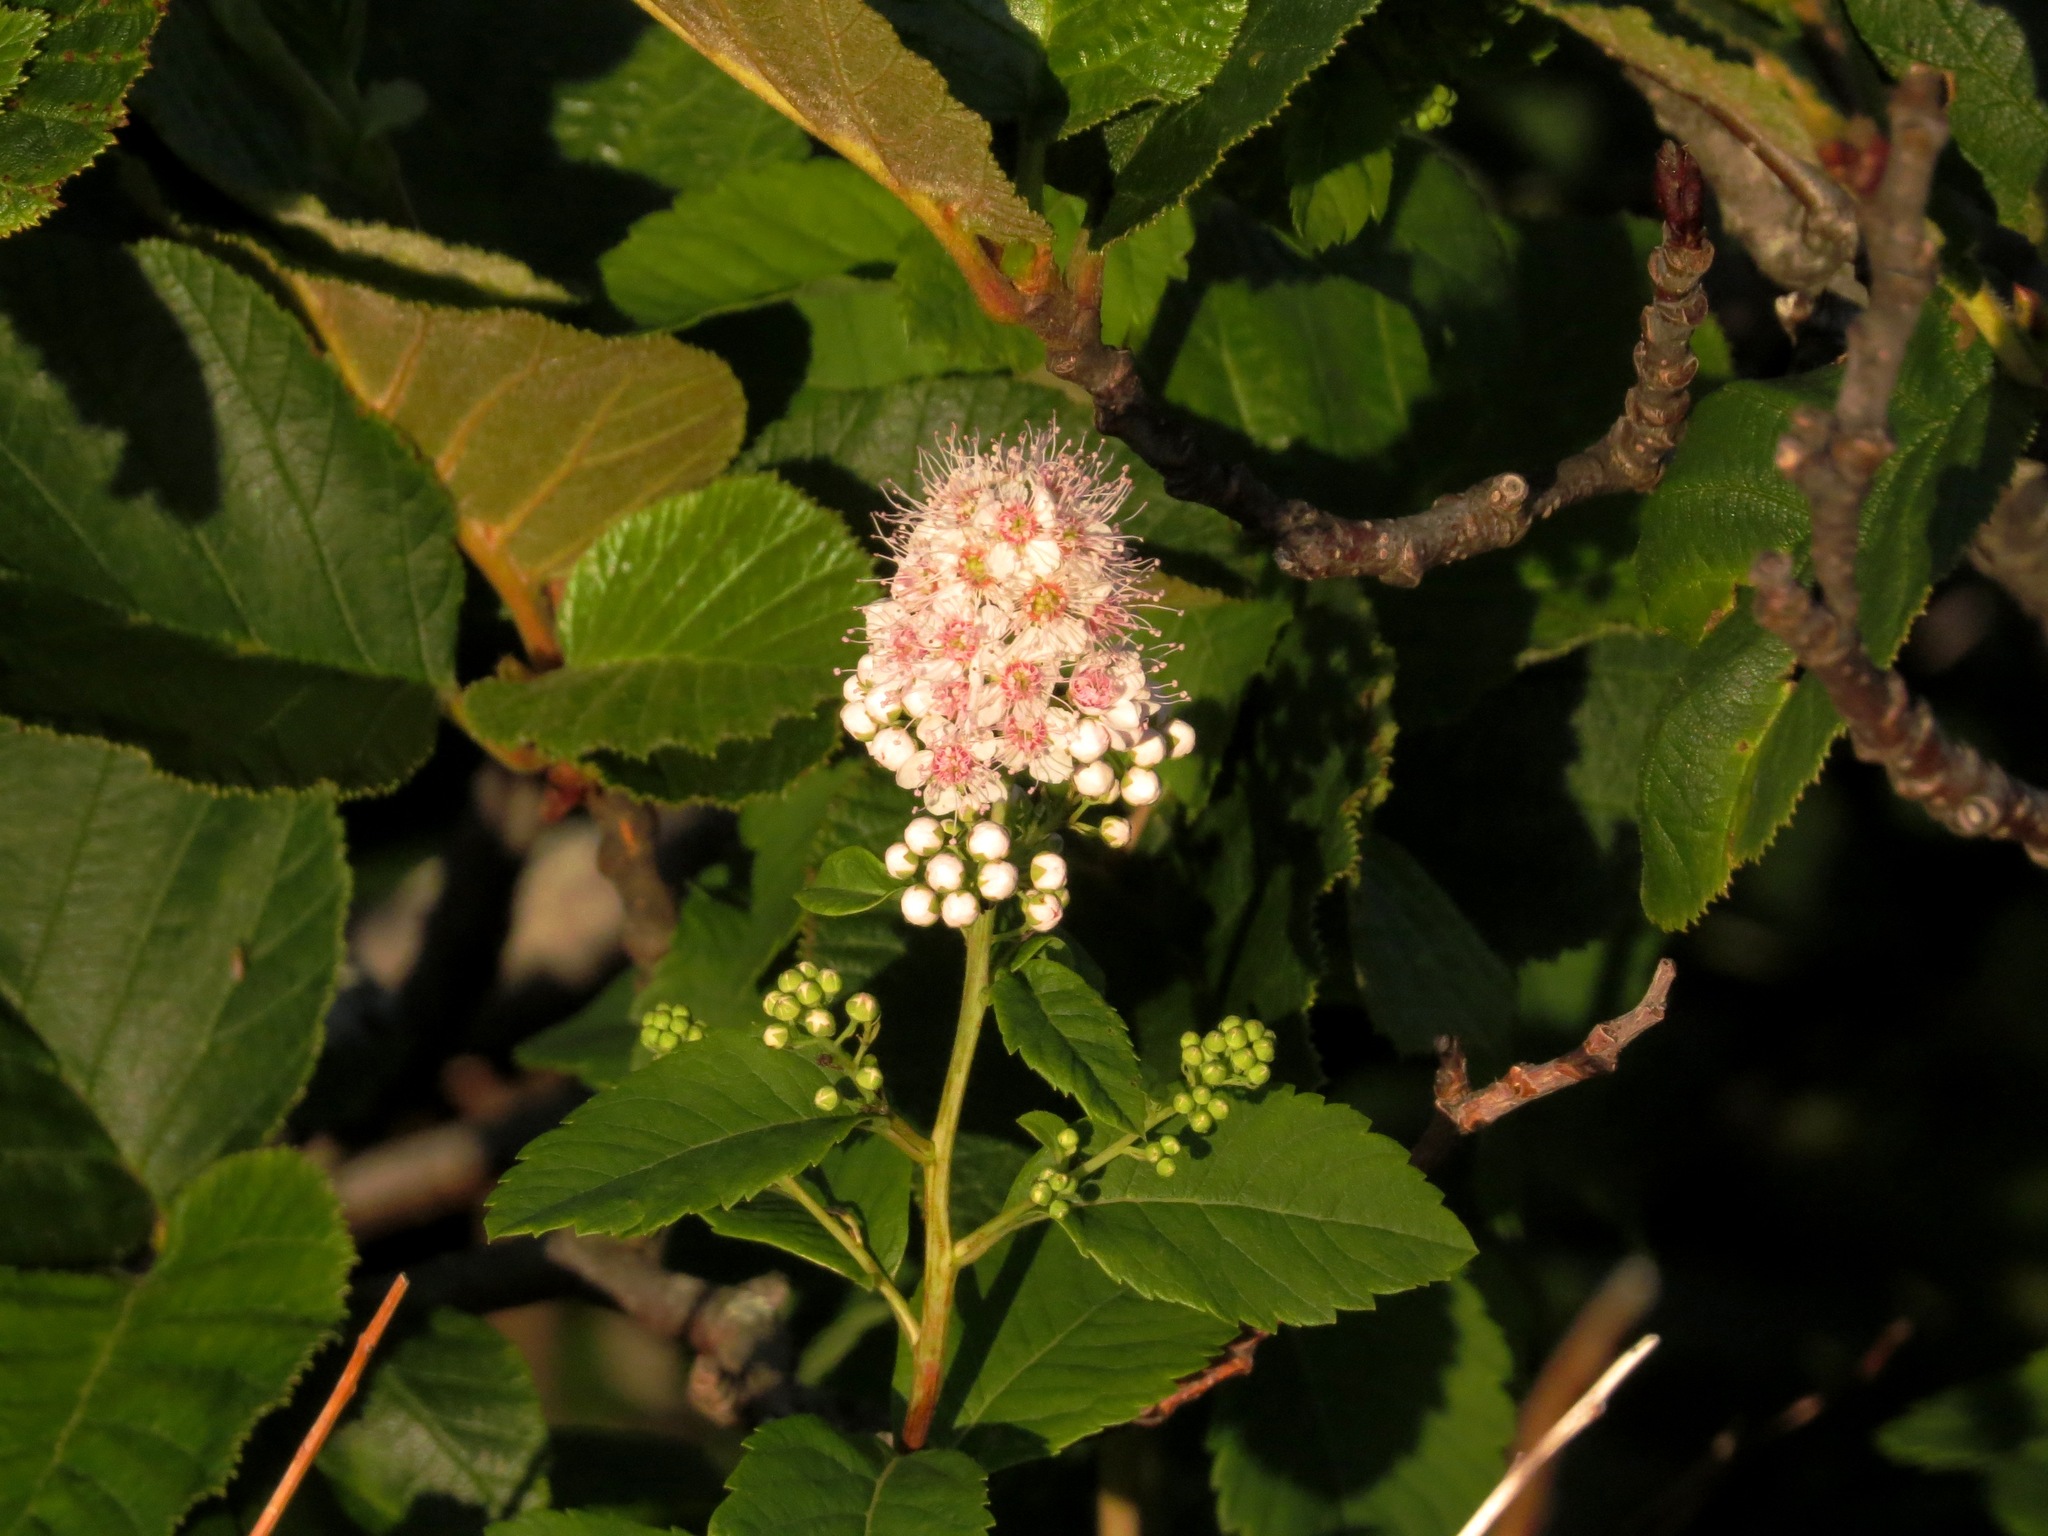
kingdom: Plantae
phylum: Tracheophyta
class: Magnoliopsida
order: Rosales
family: Rosaceae
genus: Spiraea
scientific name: Spiraea alba
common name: Pale bridewort
